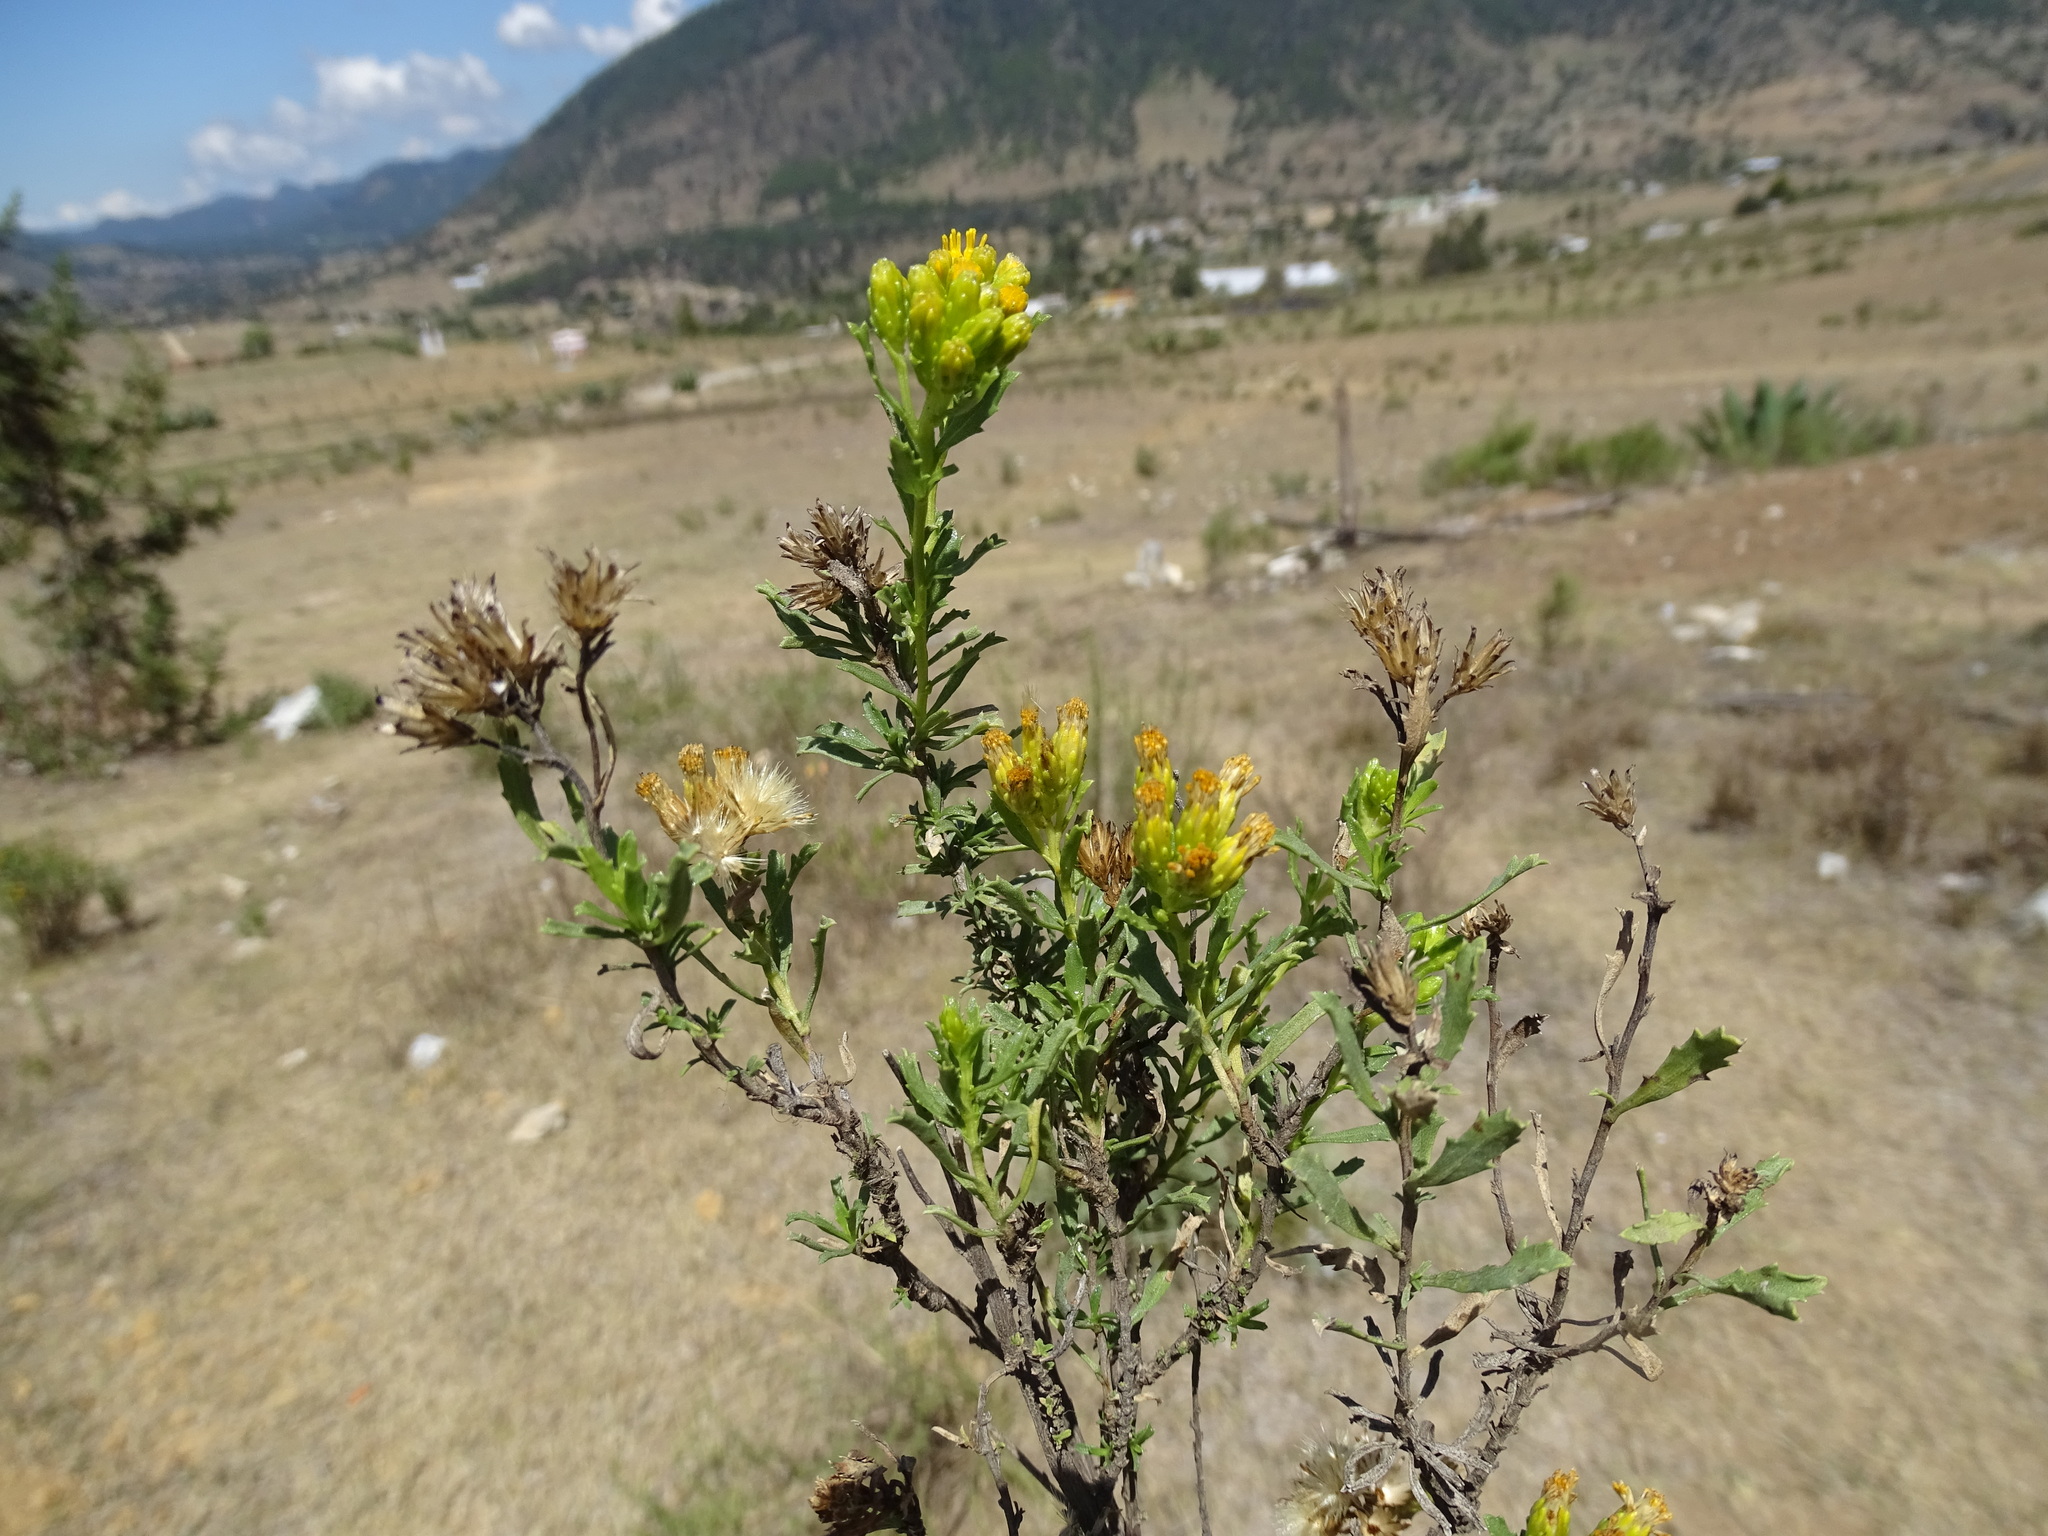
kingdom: Plantae
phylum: Tracheophyta
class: Magnoliopsida
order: Asterales
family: Asteraceae
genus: Isocoma
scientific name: Isocoma veneta
